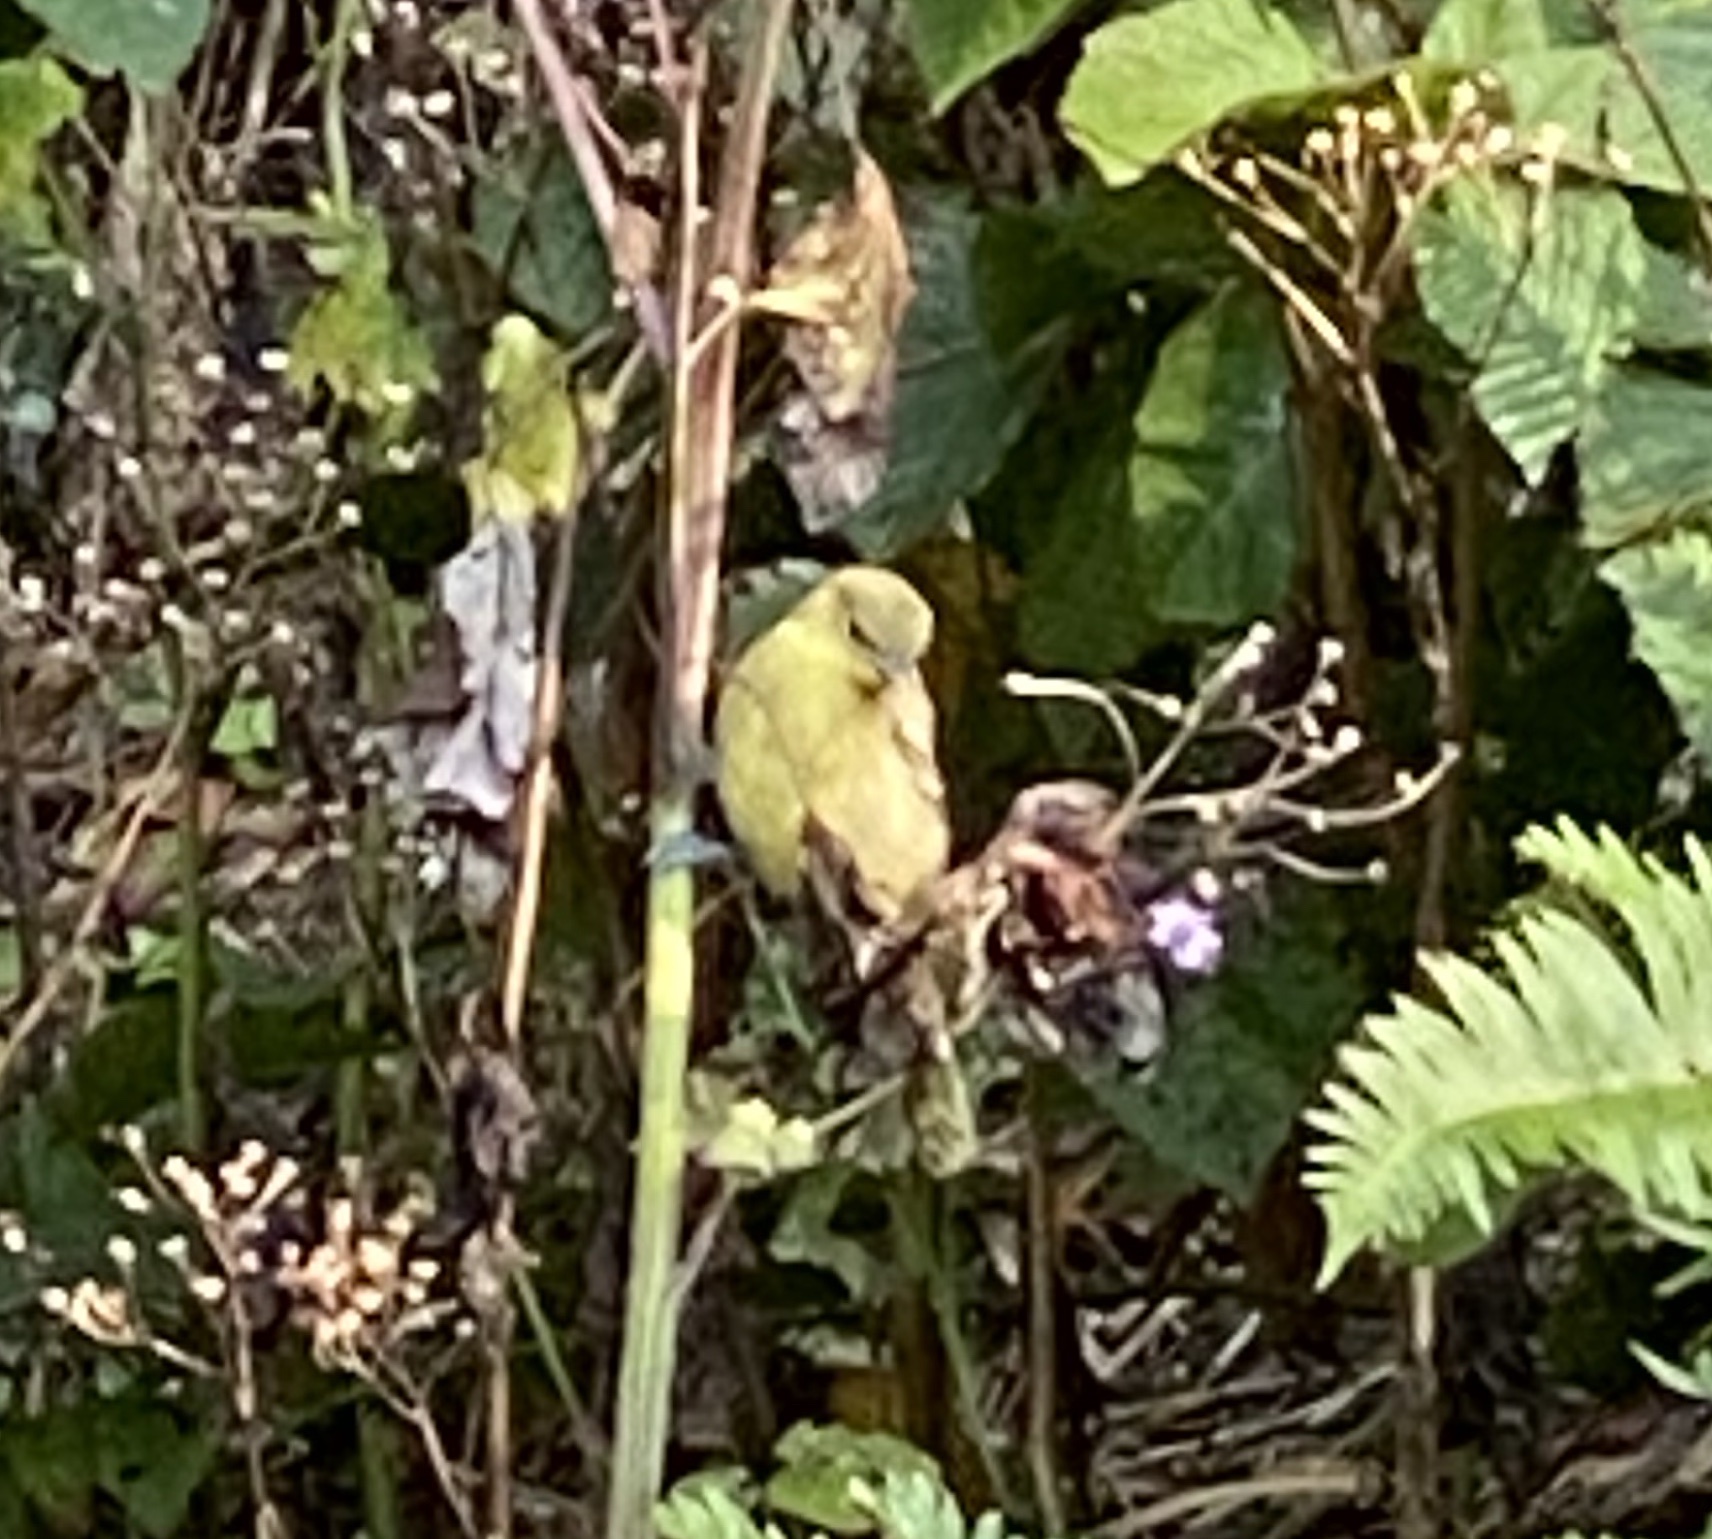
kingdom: Animalia
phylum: Chordata
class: Aves
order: Passeriformes
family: Cardinalidae
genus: Piranga
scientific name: Piranga ludoviciana
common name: Western tanager
